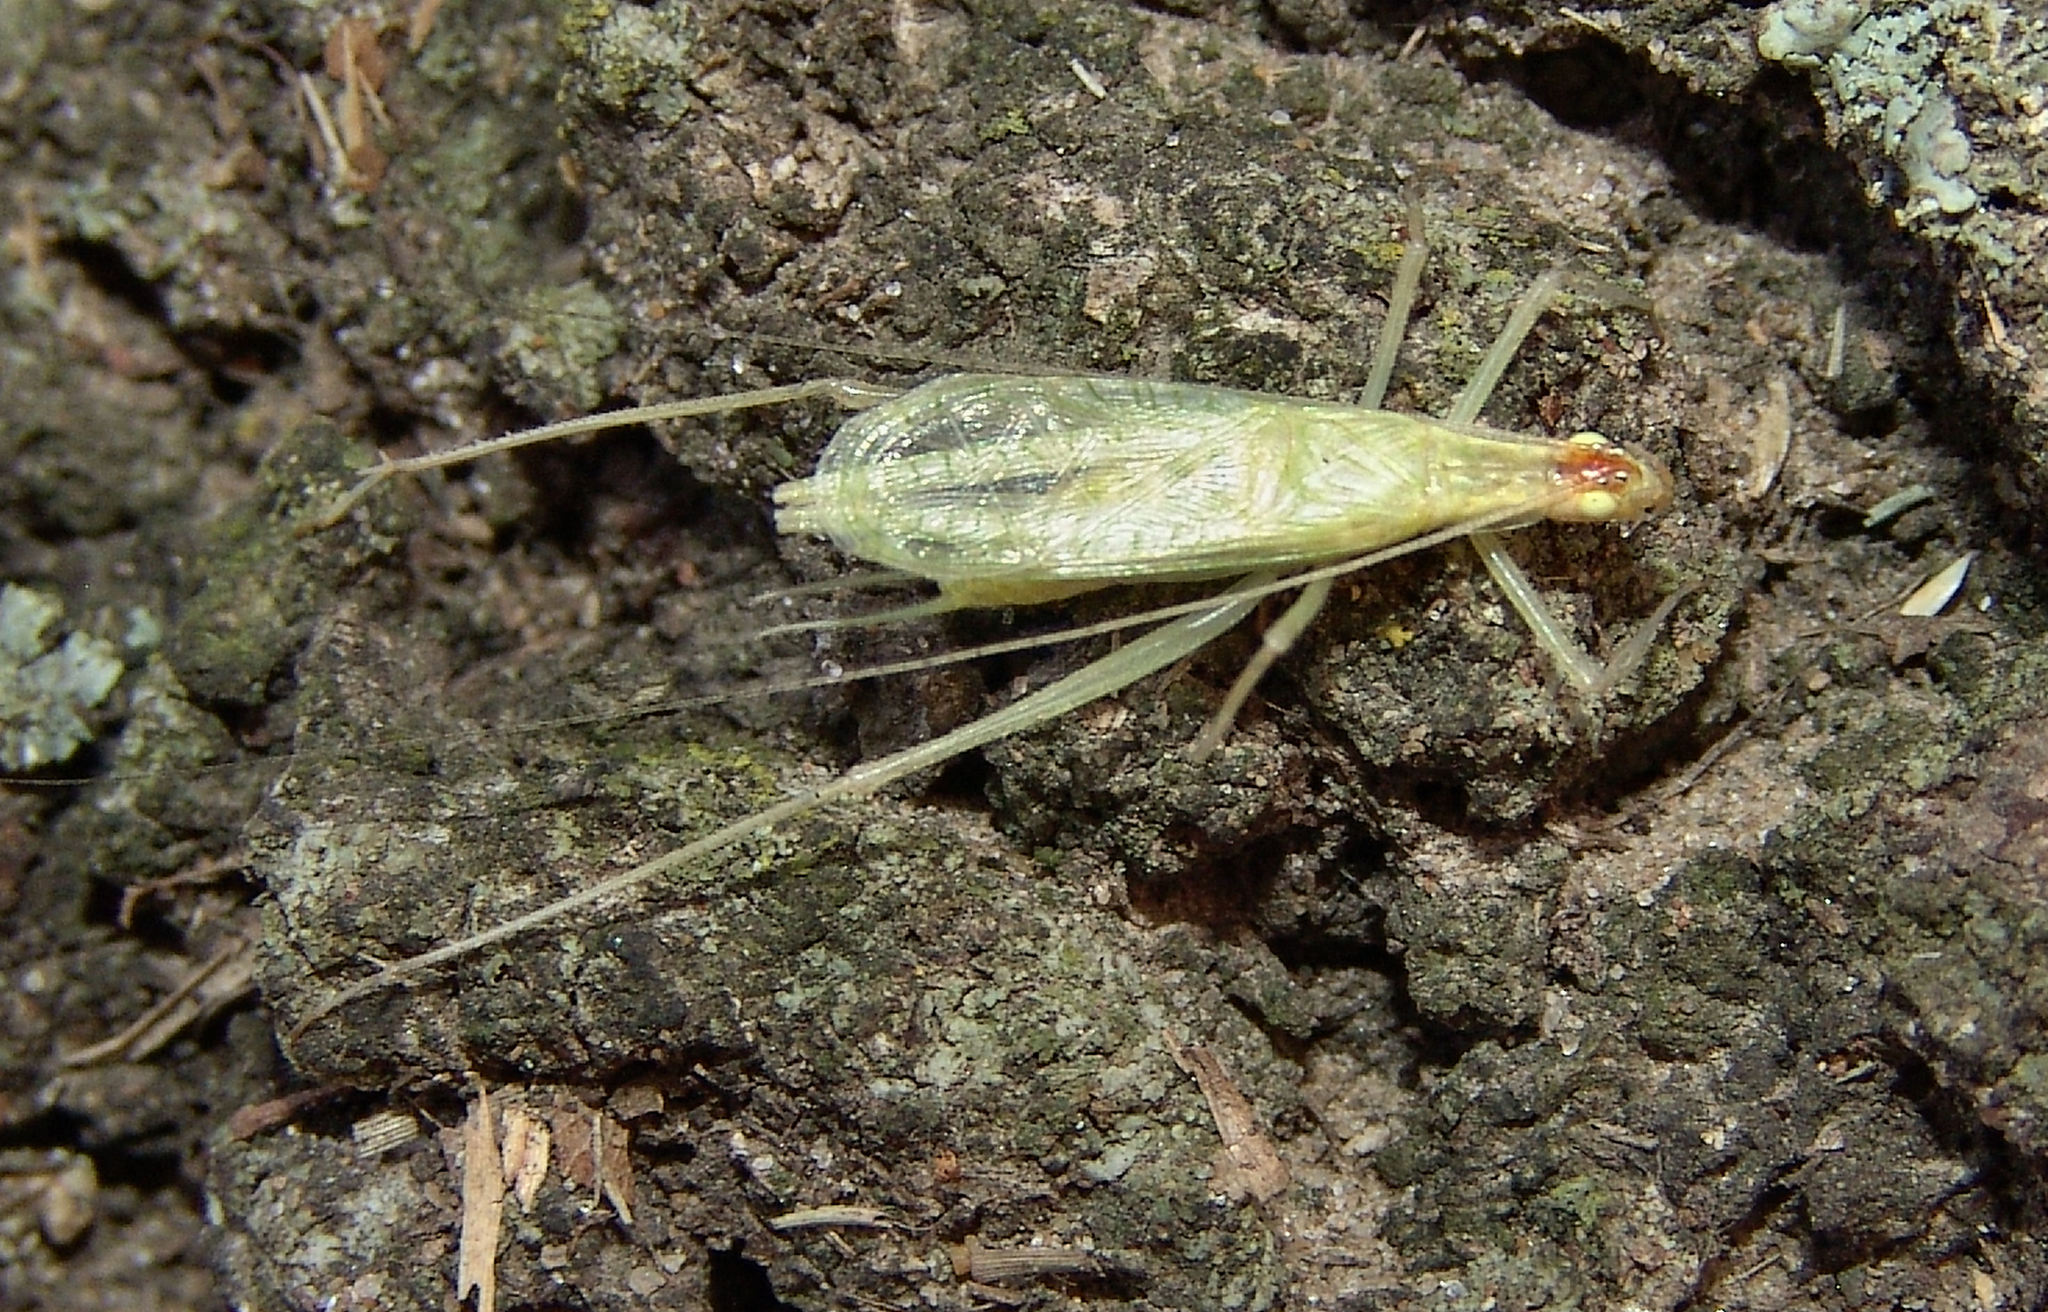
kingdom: Animalia
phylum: Arthropoda
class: Insecta
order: Orthoptera
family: Gryllidae
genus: Oecanthus
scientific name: Oecanthus niveus
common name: Narrow-winged tree cricket
